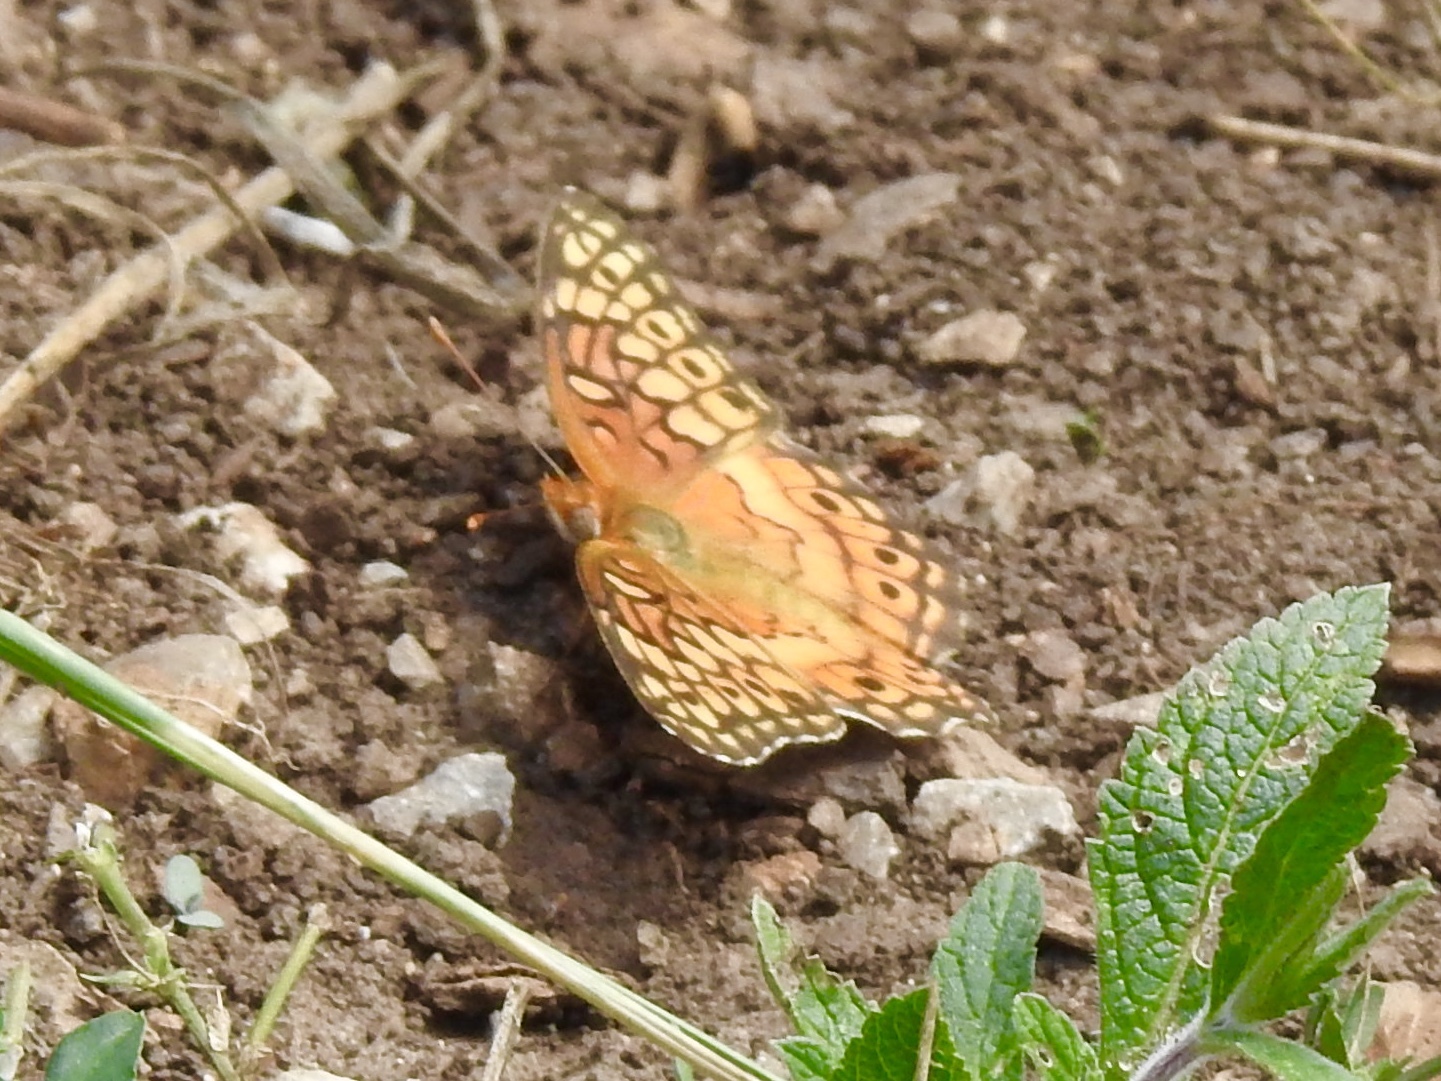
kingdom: Animalia
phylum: Arthropoda
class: Insecta
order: Lepidoptera
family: Nymphalidae
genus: Euptoieta
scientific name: Euptoieta claudia
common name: Variegated fritillary
